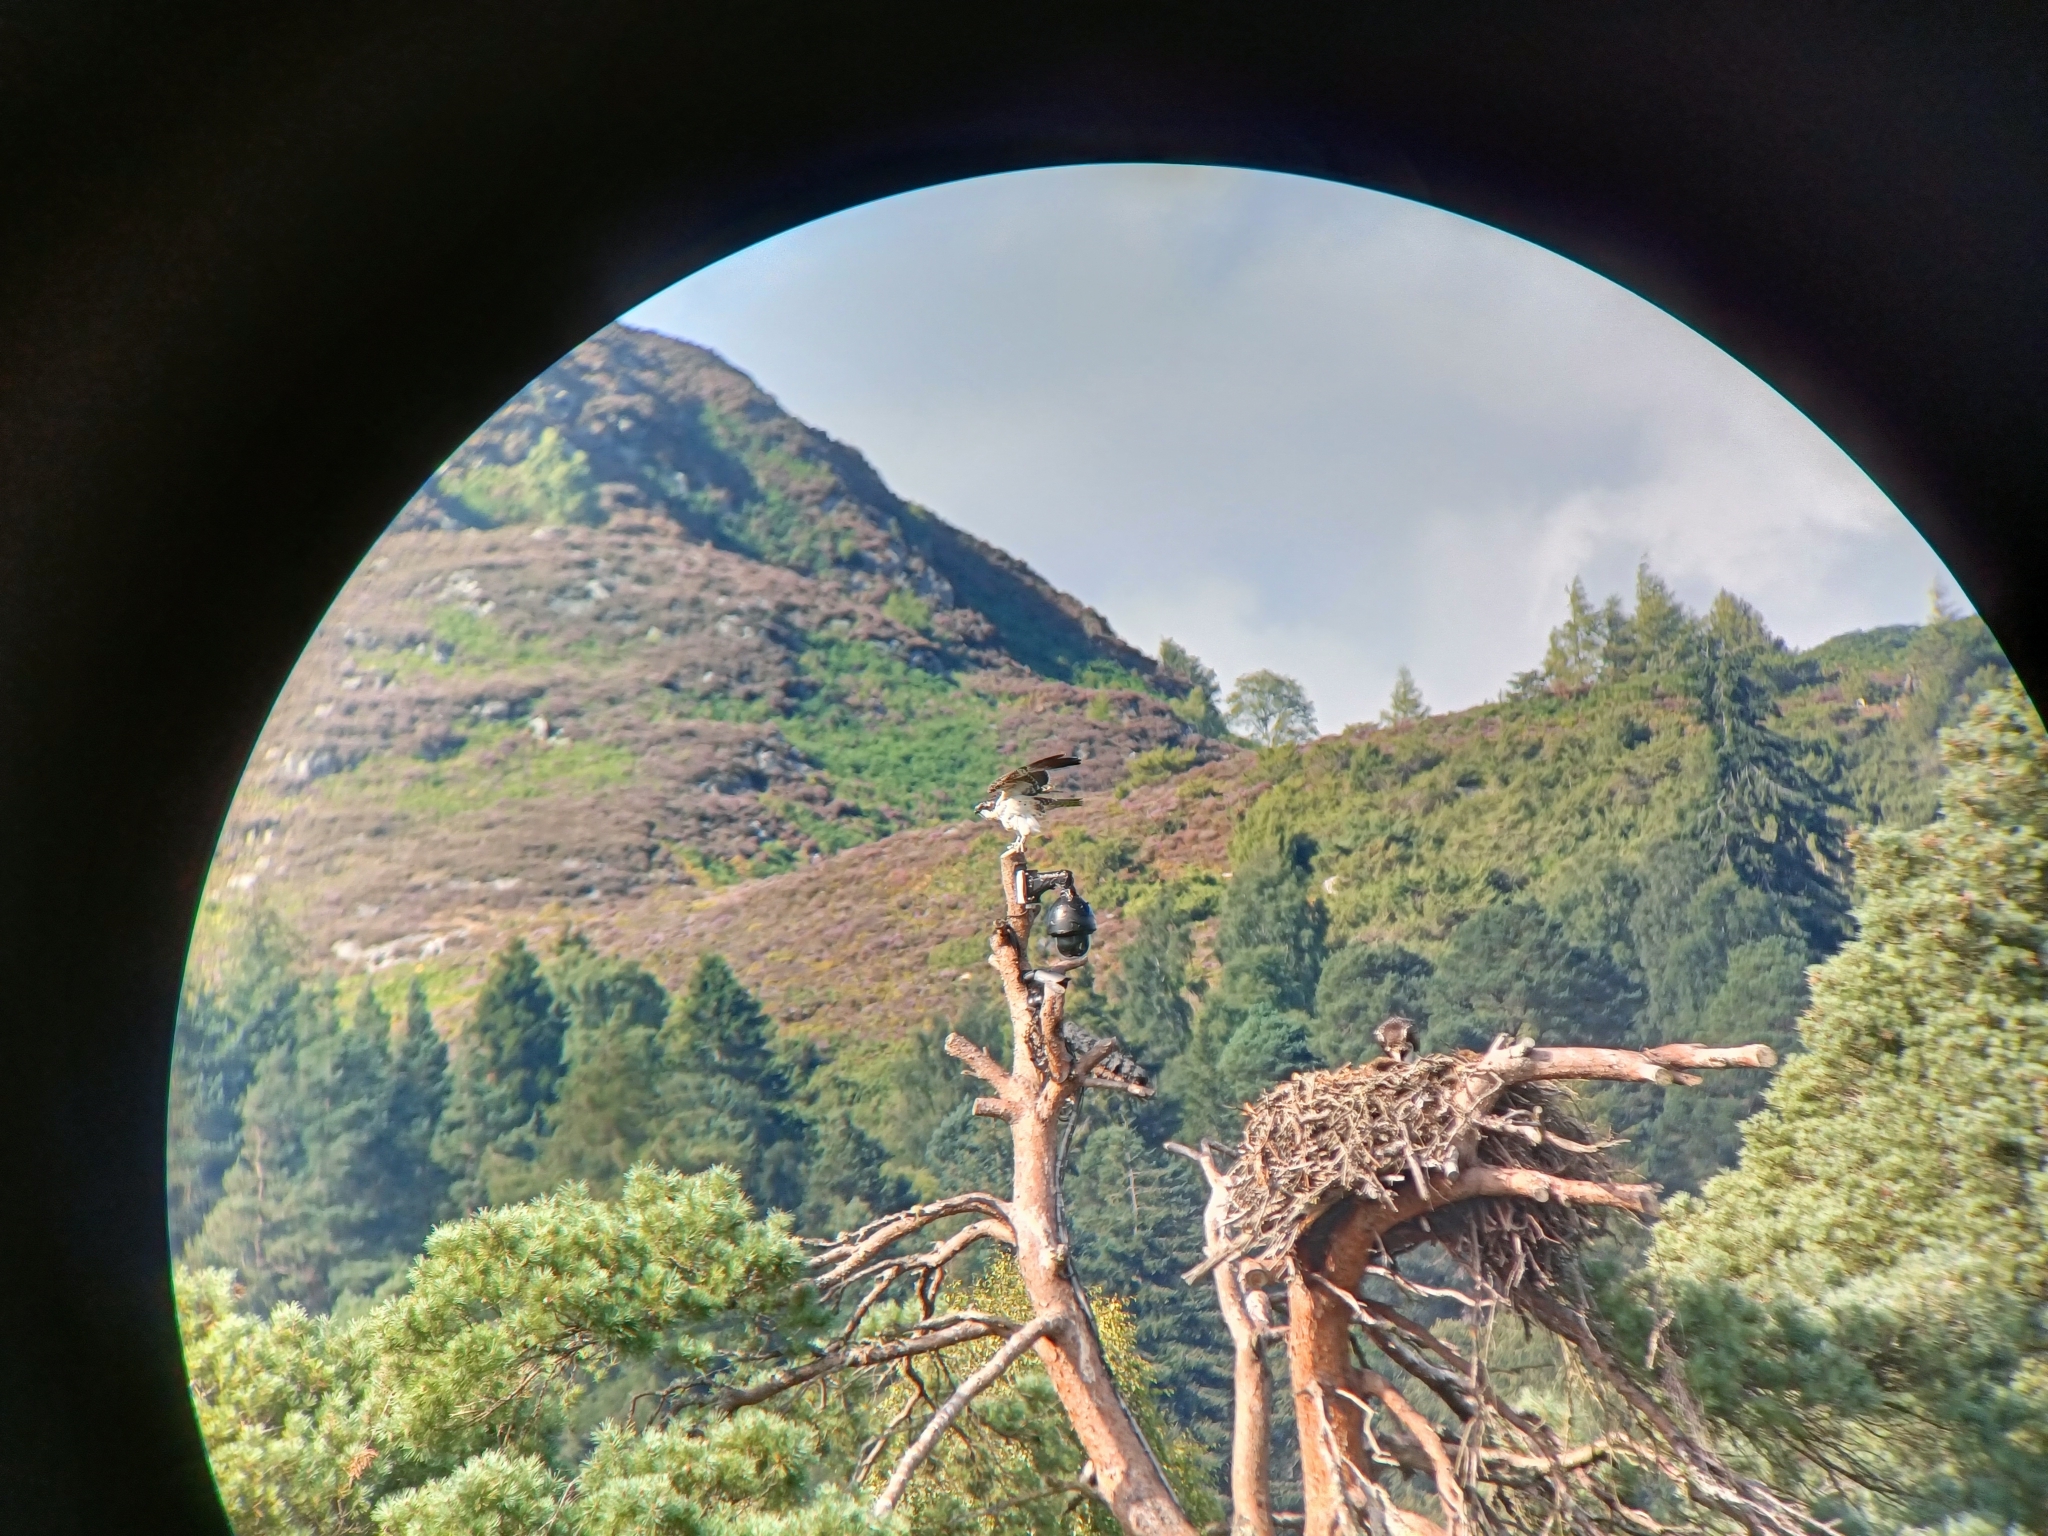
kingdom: Animalia
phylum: Chordata
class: Aves
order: Accipitriformes
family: Pandionidae
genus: Pandion
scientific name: Pandion haliaetus
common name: Osprey
